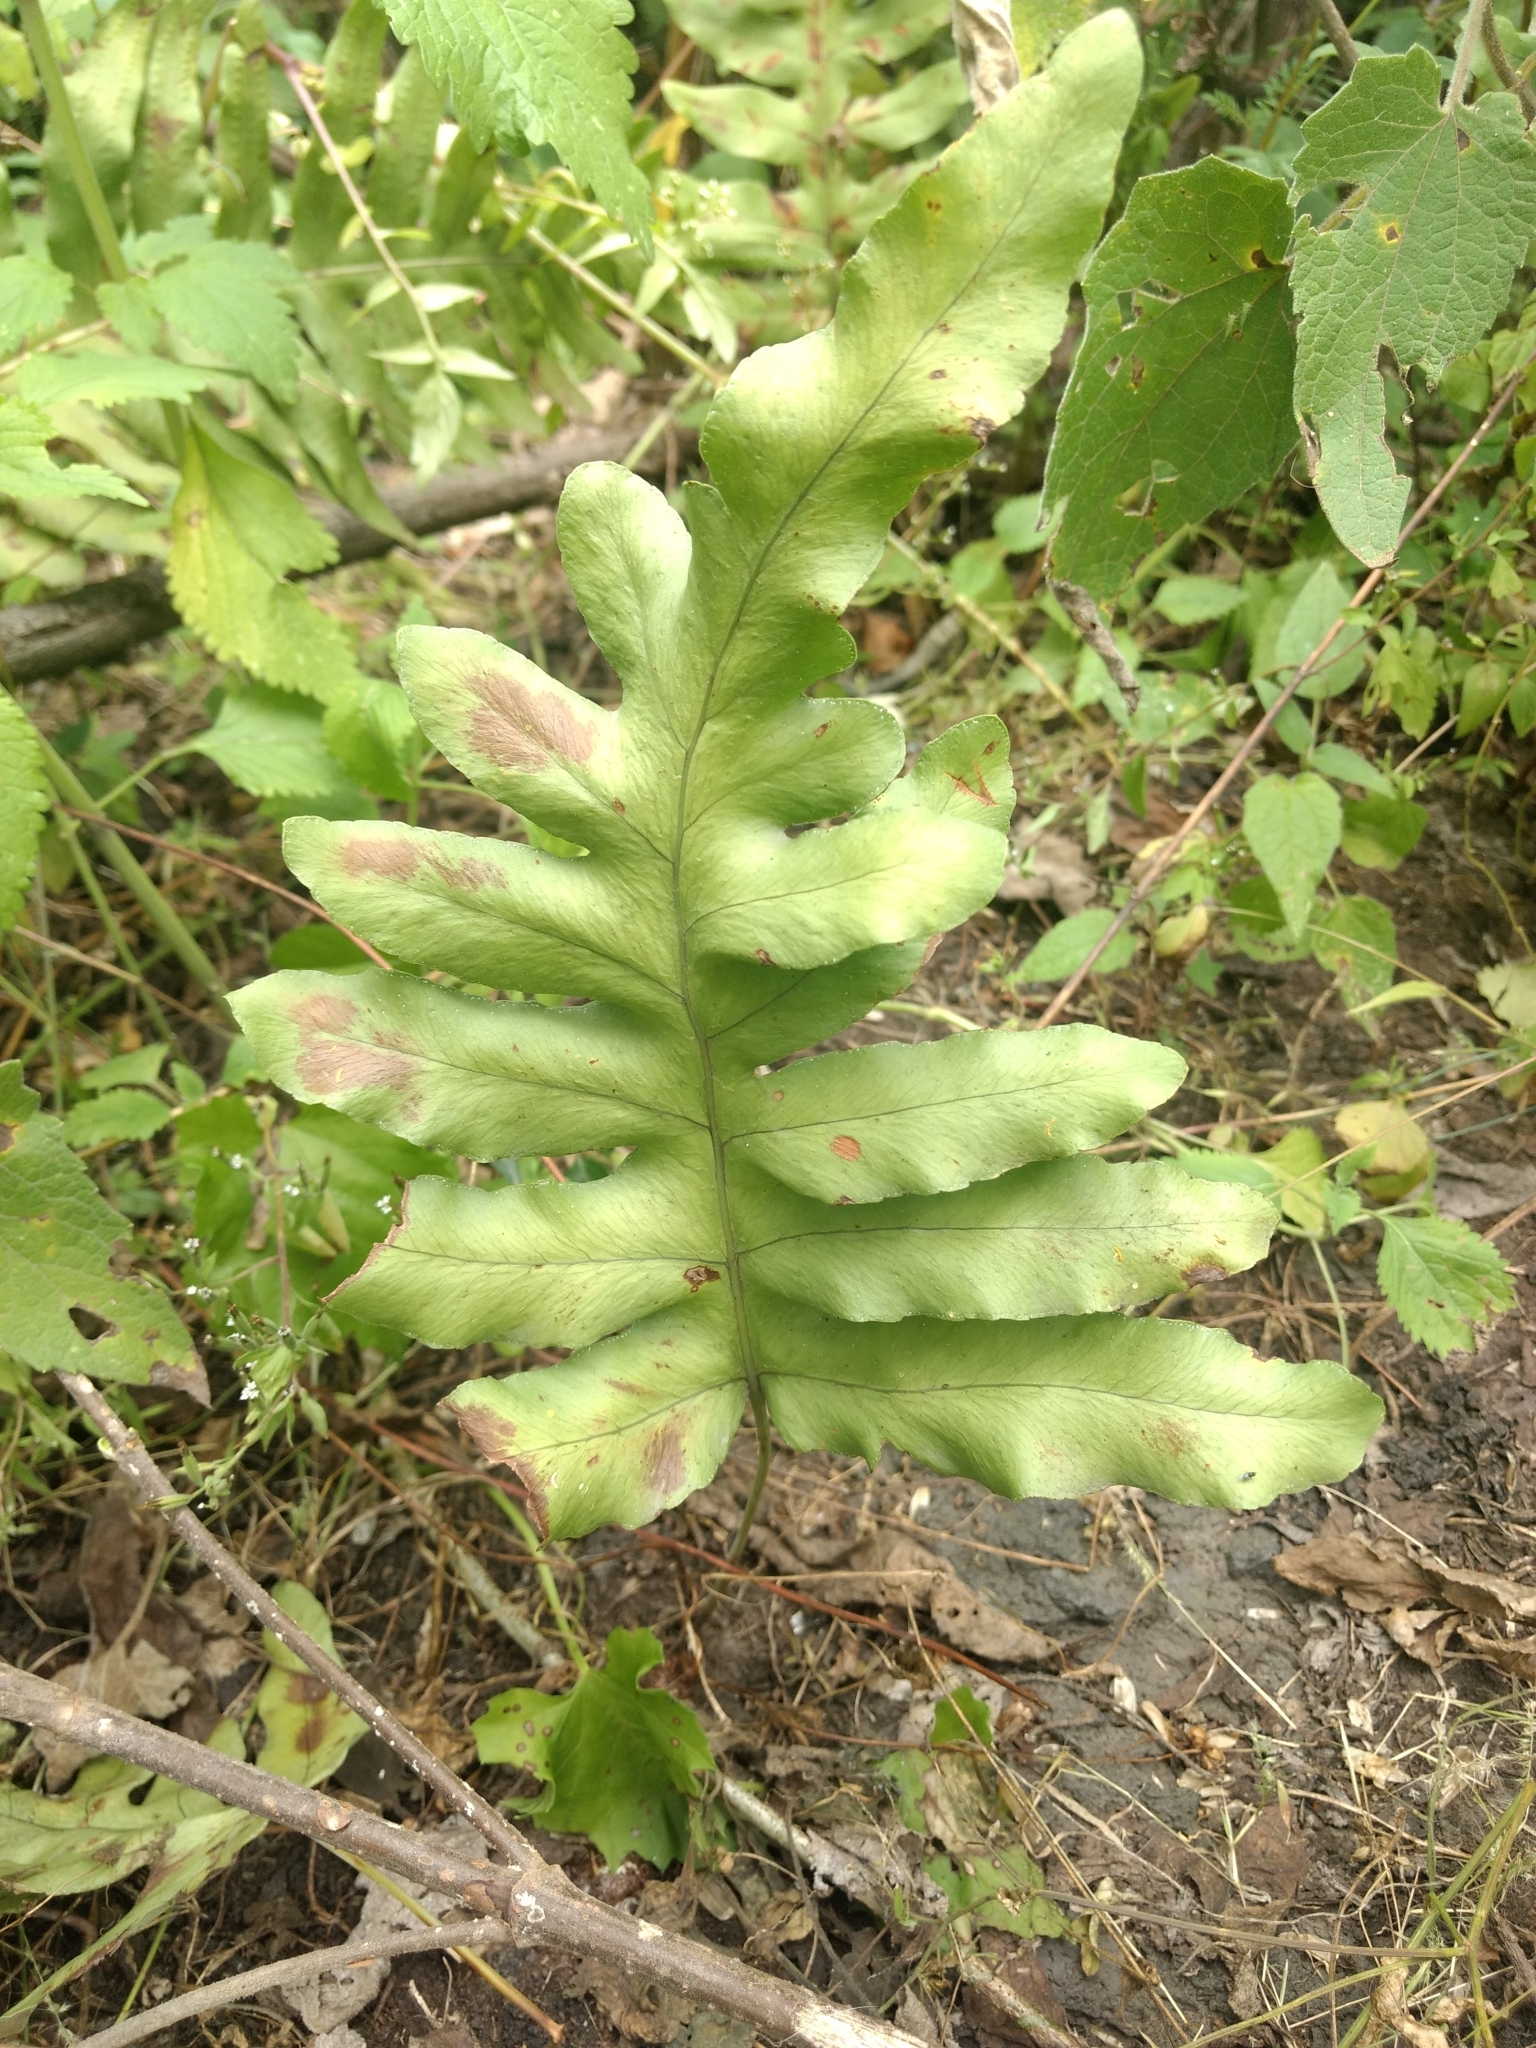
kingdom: Plantae
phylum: Tracheophyta
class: Polypodiopsida
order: Polypodiales
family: Polypodiaceae
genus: Phlebodium
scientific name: Phlebodium pseudoaureum
